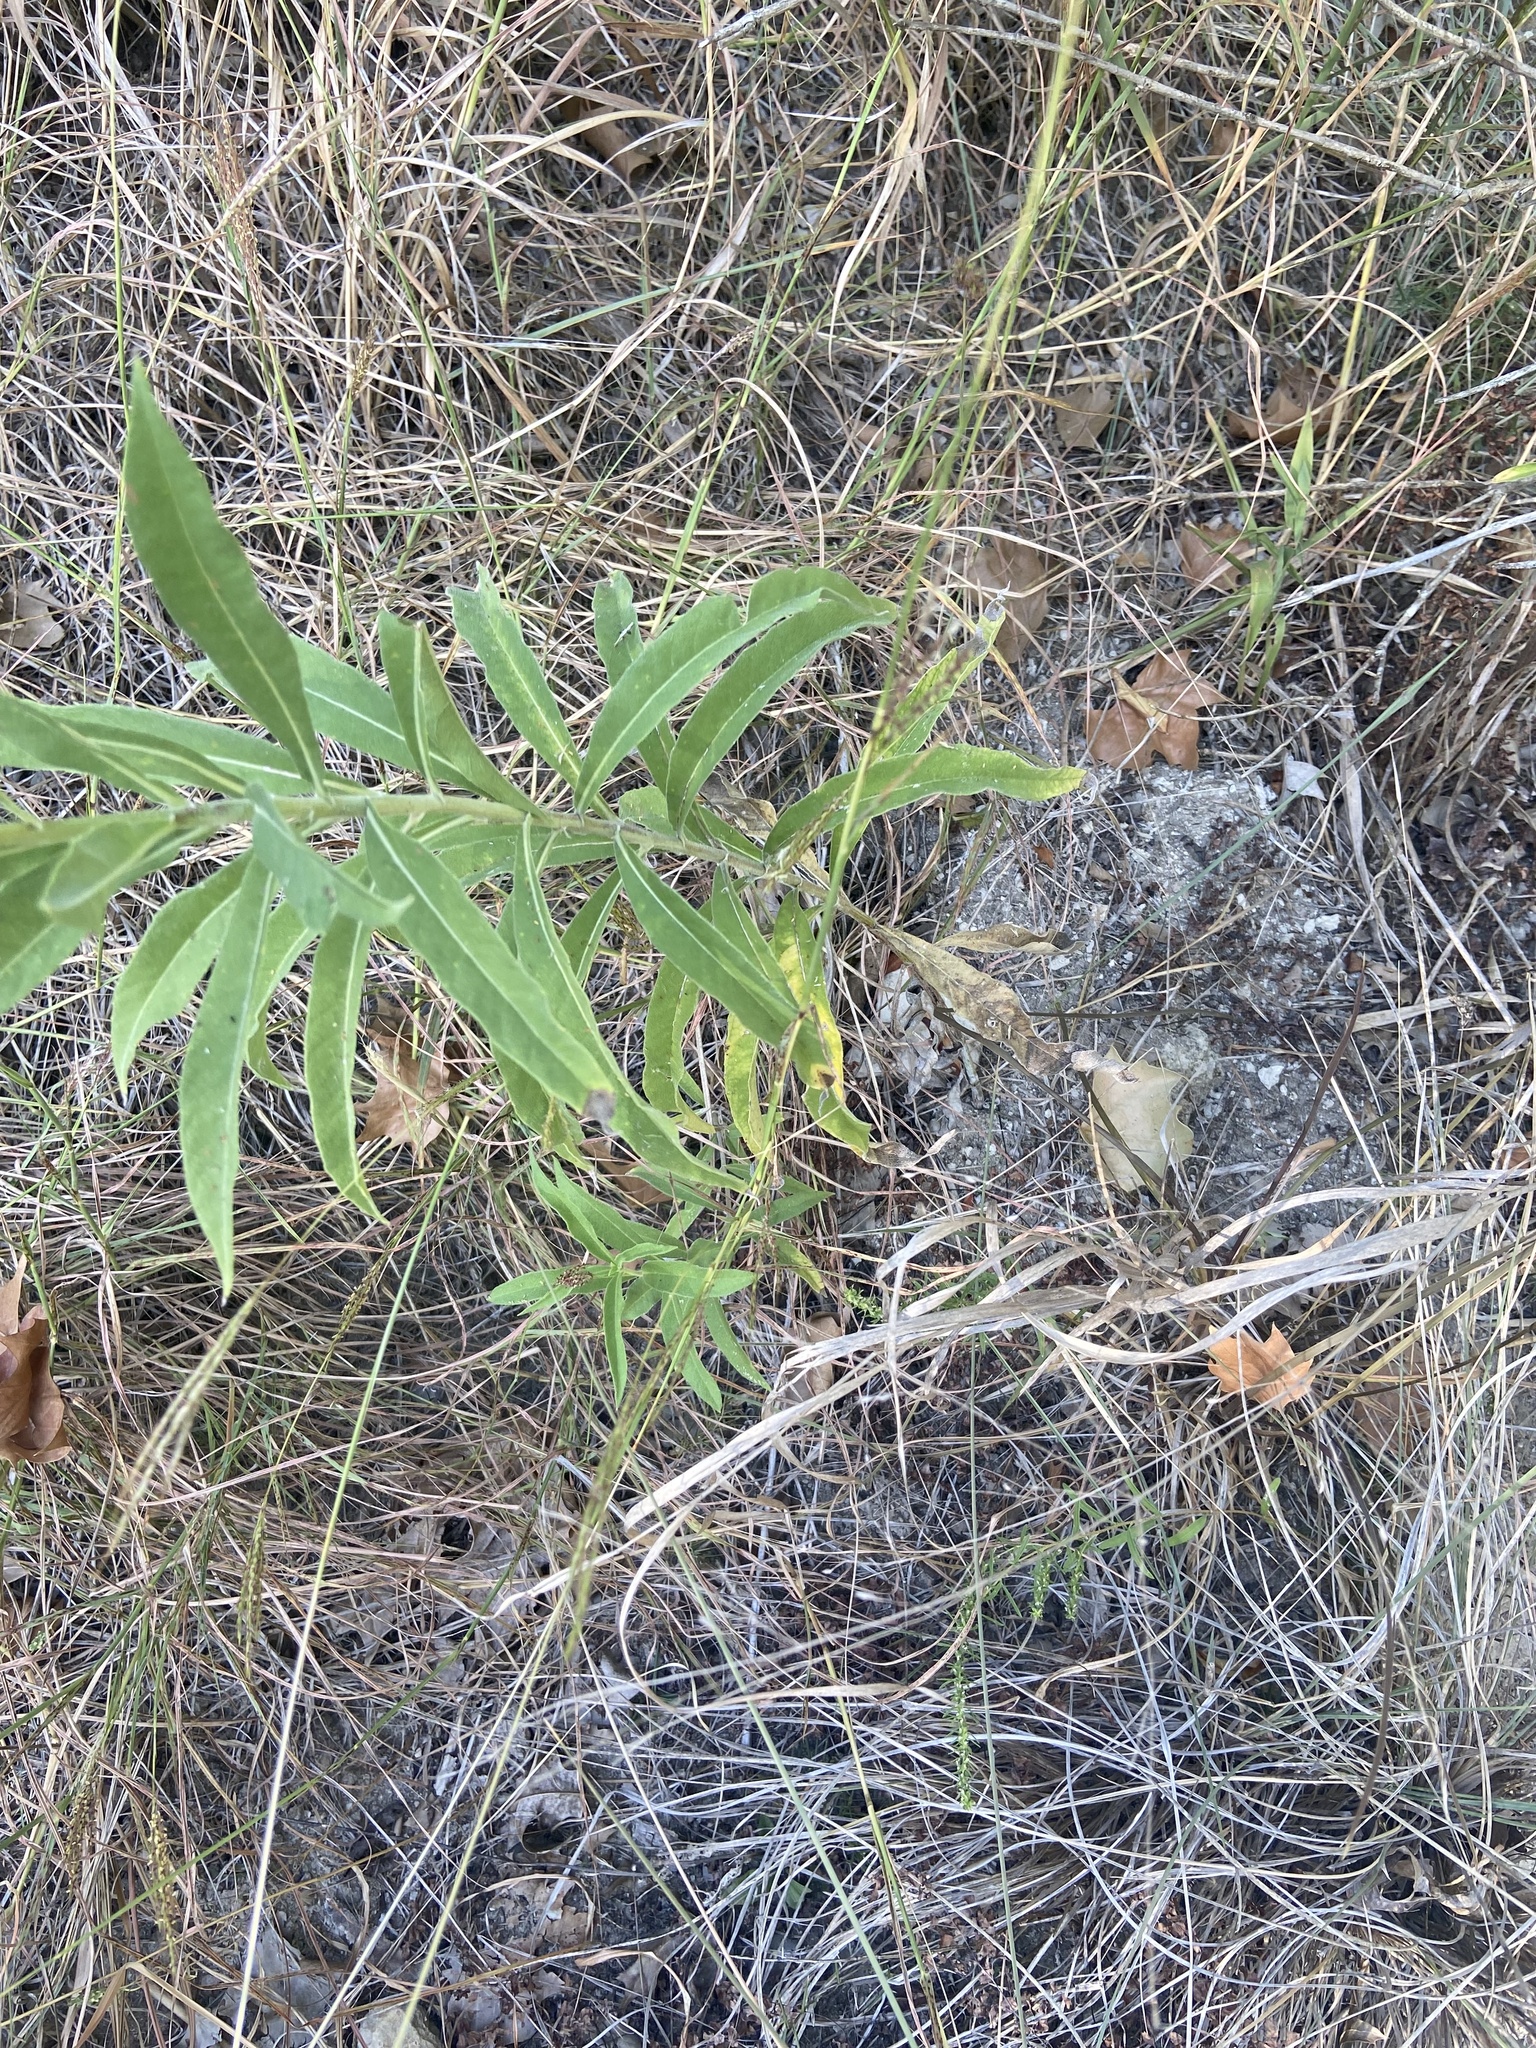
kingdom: Plantae
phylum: Tracheophyta
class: Magnoliopsida
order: Asterales
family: Asteraceae
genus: Helianthus
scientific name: Helianthus maximiliani
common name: Maximilian's sunflower
